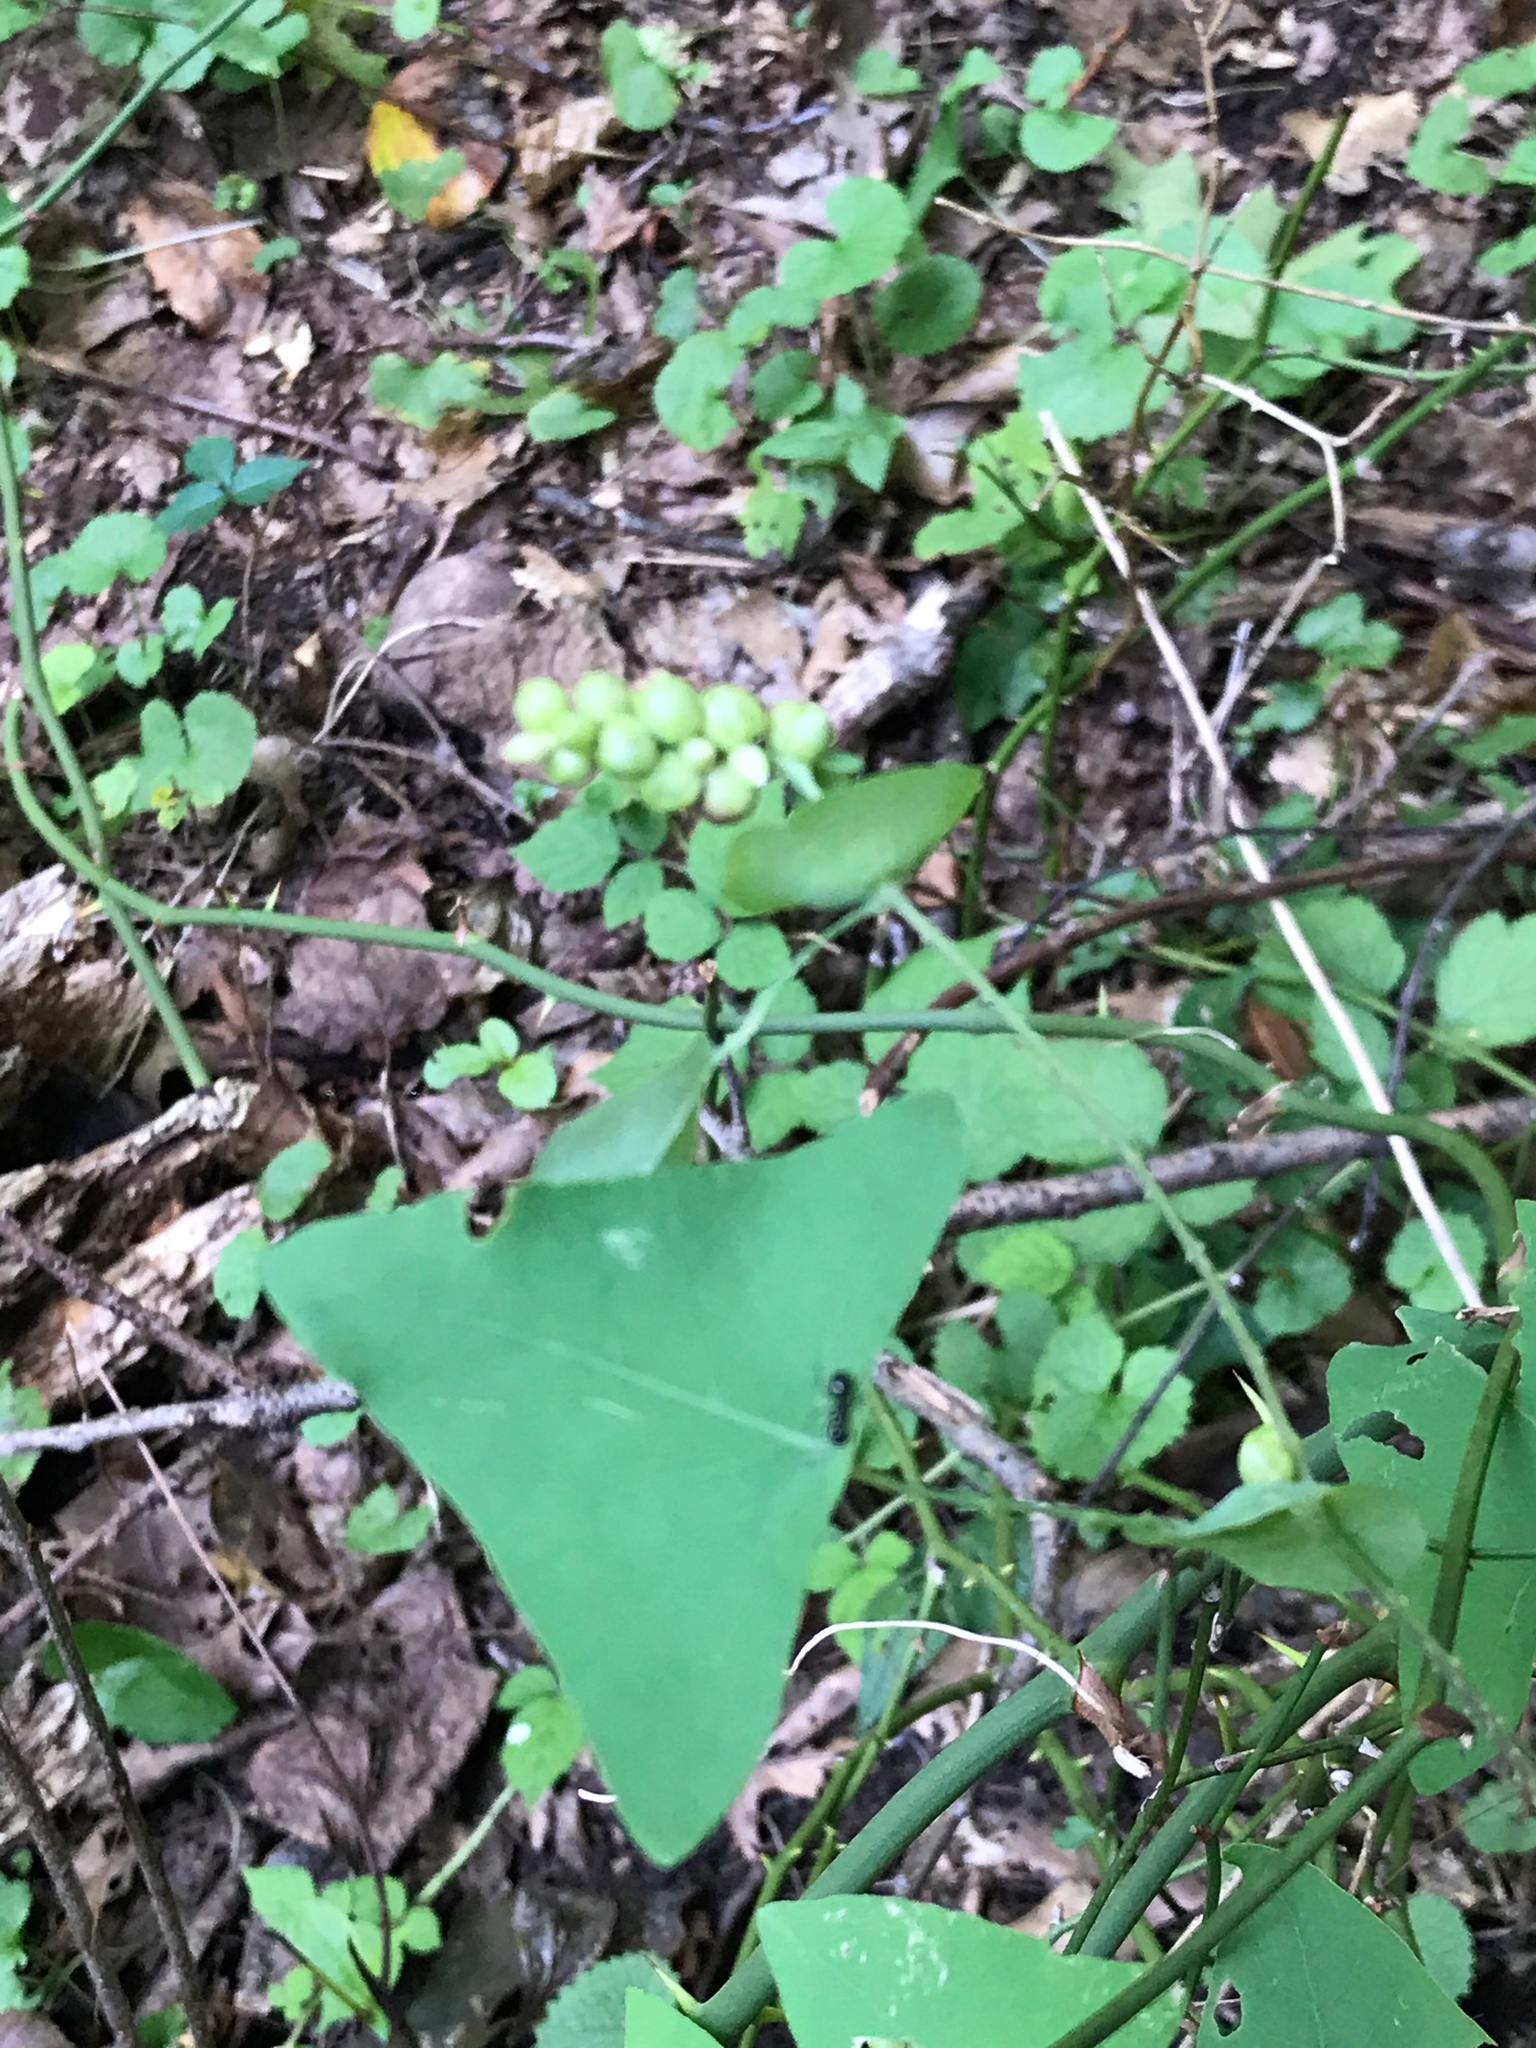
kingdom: Plantae
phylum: Tracheophyta
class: Magnoliopsida
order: Caryophyllales
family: Polygonaceae
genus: Persicaria
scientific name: Persicaria perfoliata
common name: Asiatic tearthumb
